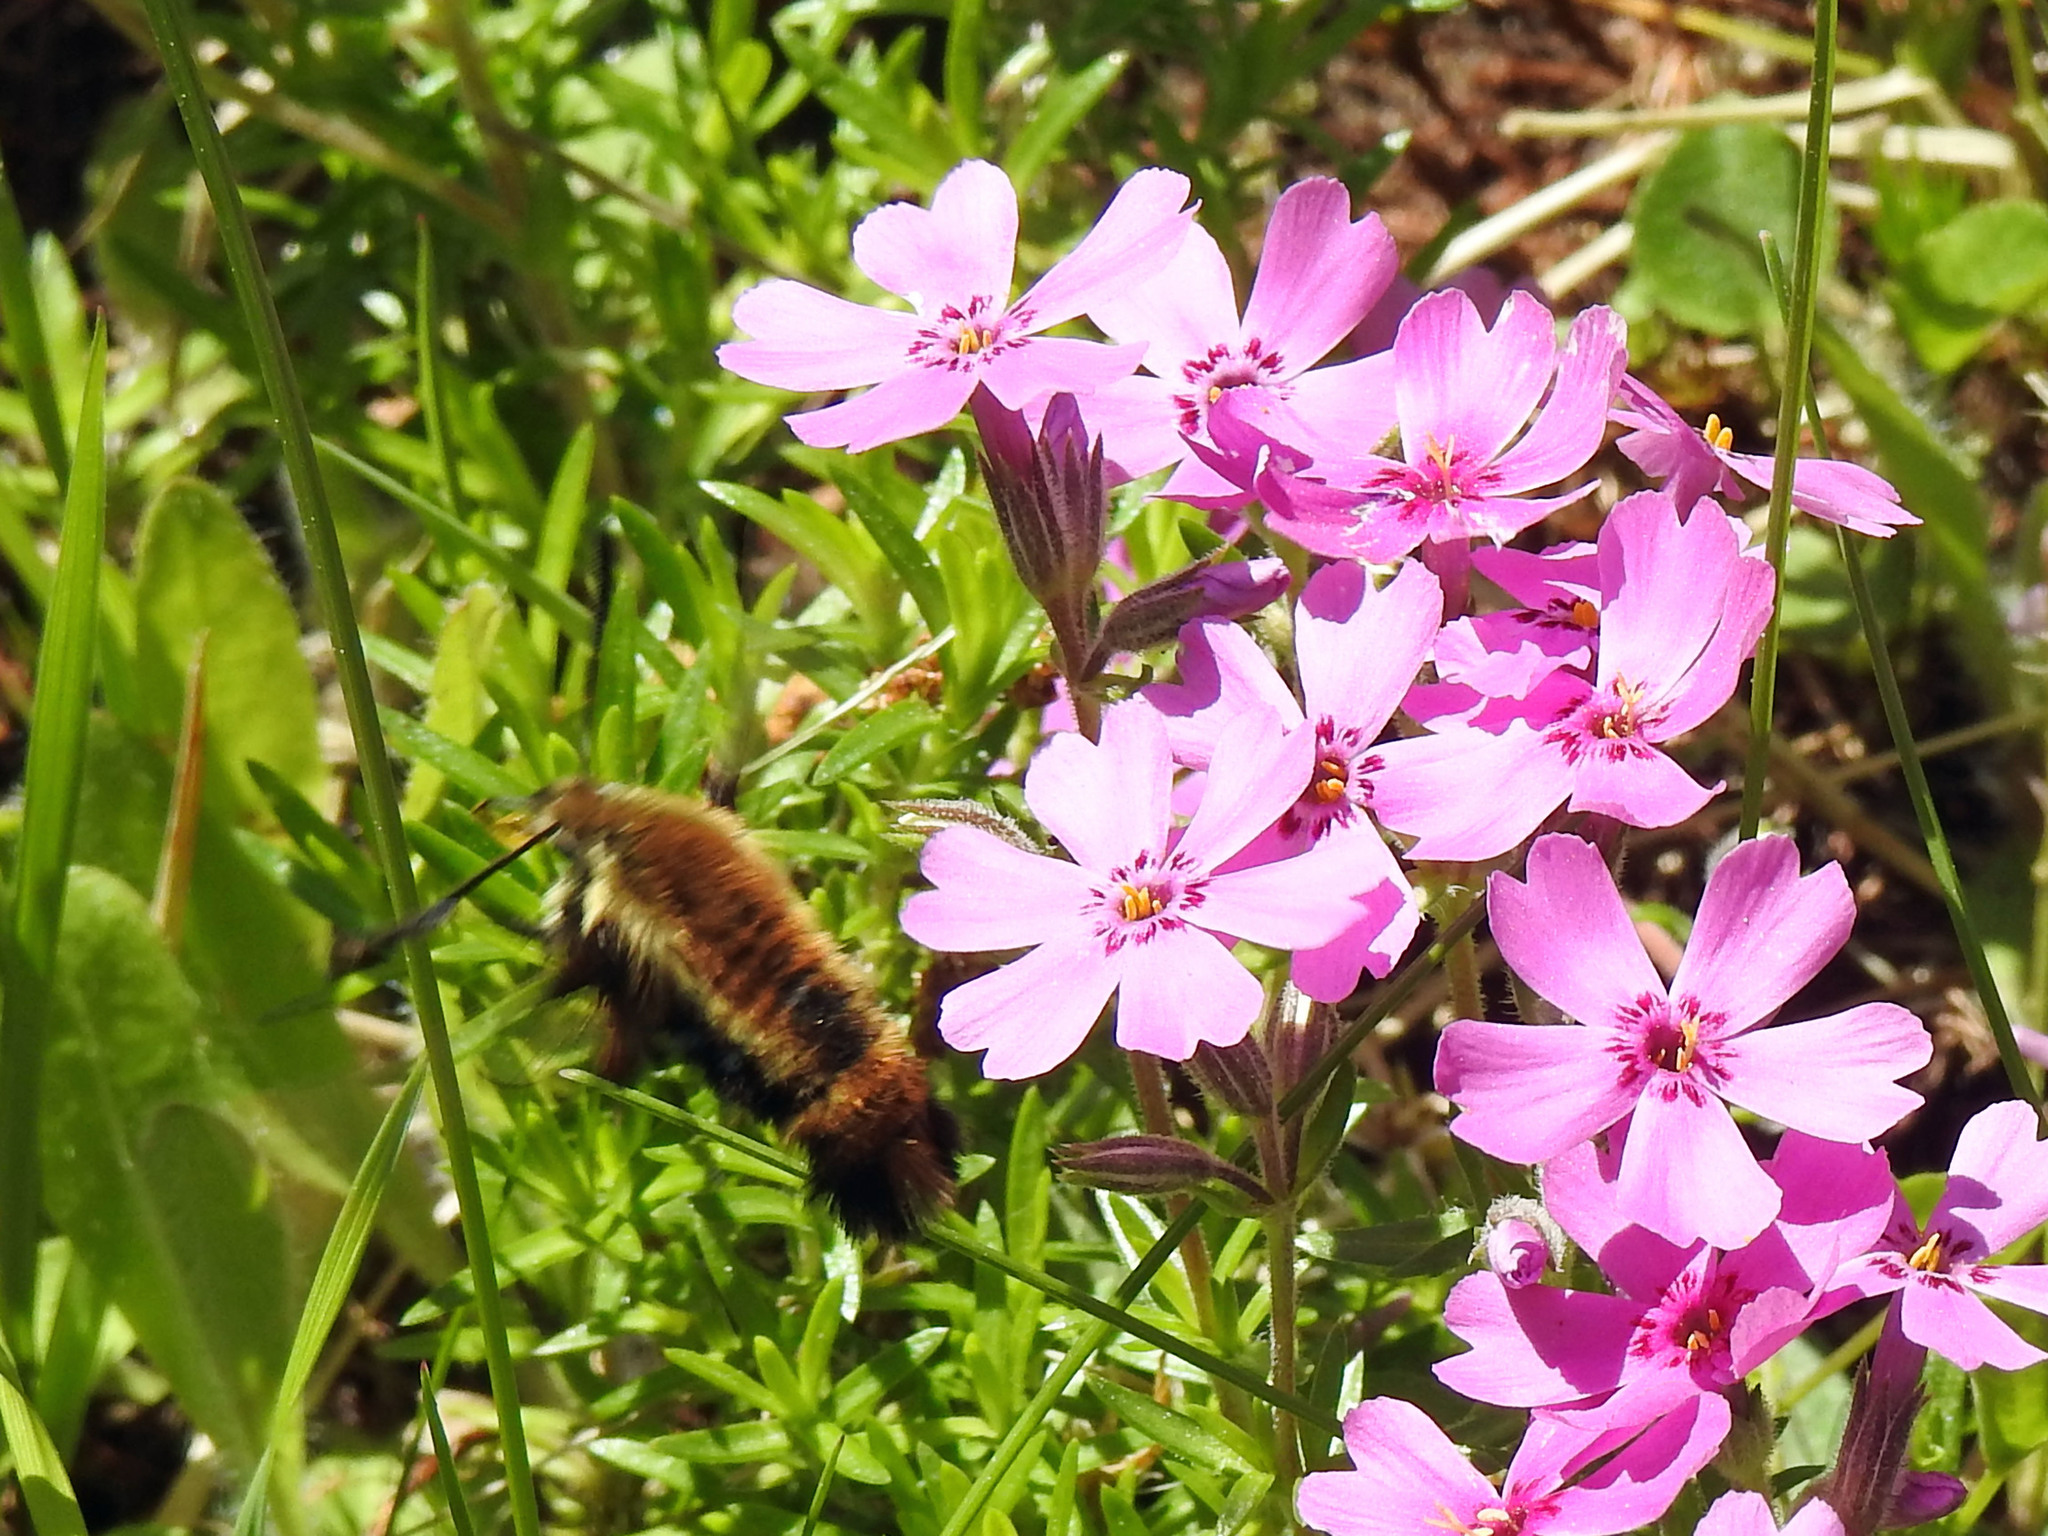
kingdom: Animalia
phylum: Arthropoda
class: Insecta
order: Lepidoptera
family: Sphingidae
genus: Hemaris
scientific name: Hemaris diffinis
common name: Bumblebee moth
